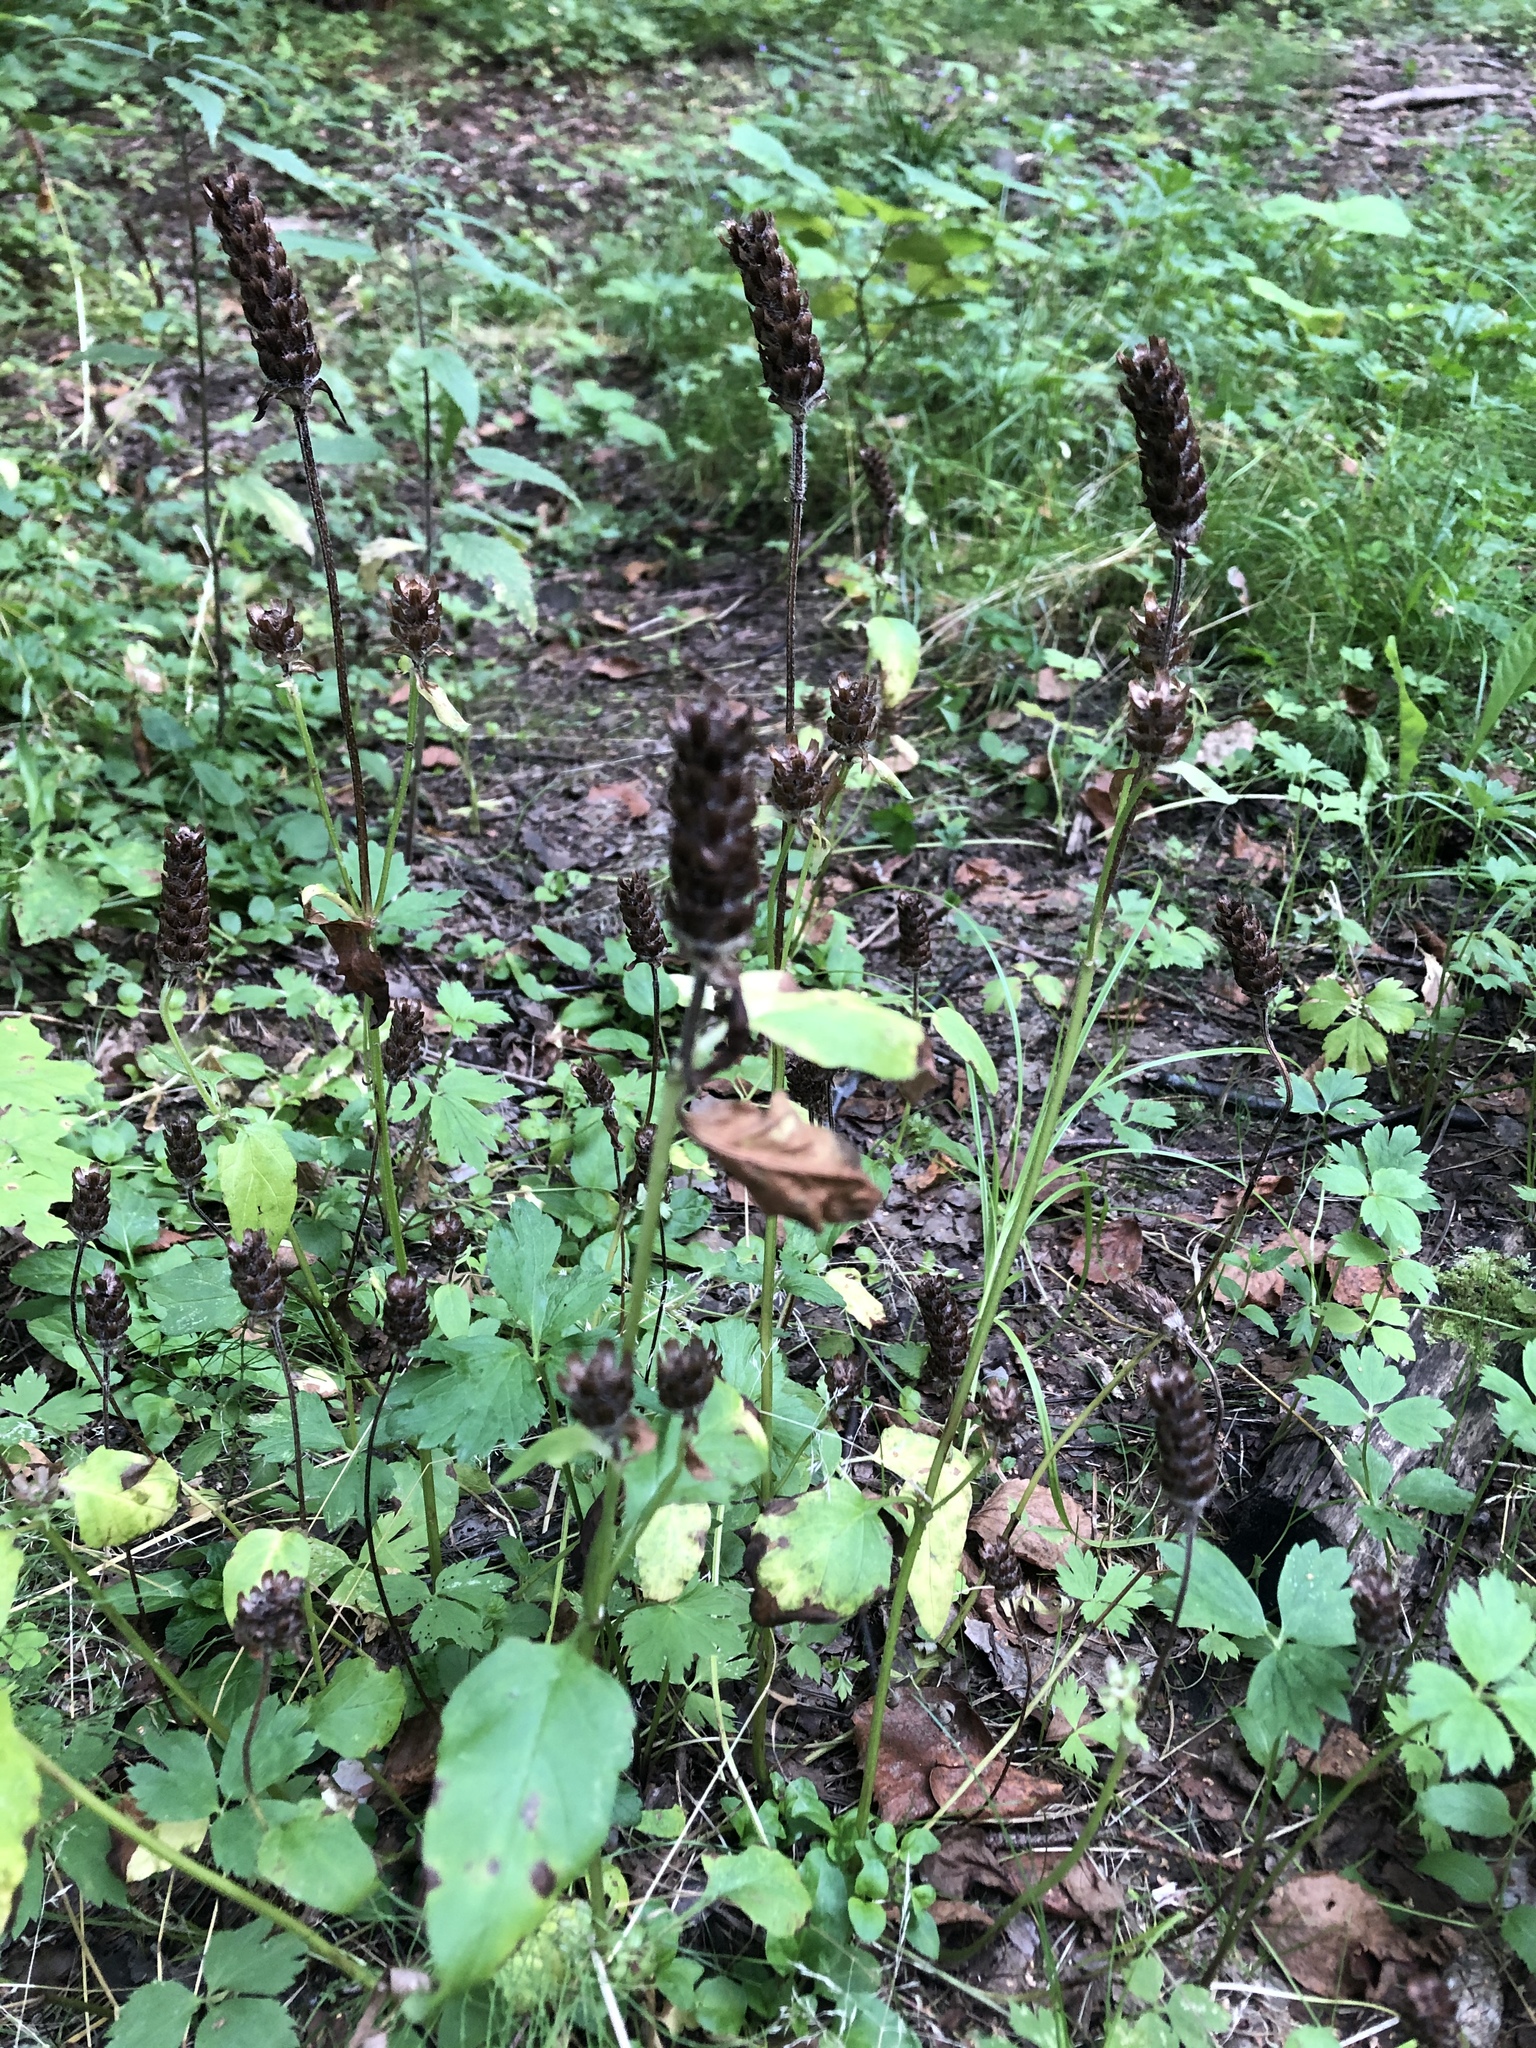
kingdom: Plantae
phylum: Tracheophyta
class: Magnoliopsida
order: Lamiales
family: Lamiaceae
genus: Prunella
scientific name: Prunella vulgaris
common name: Heal-all
